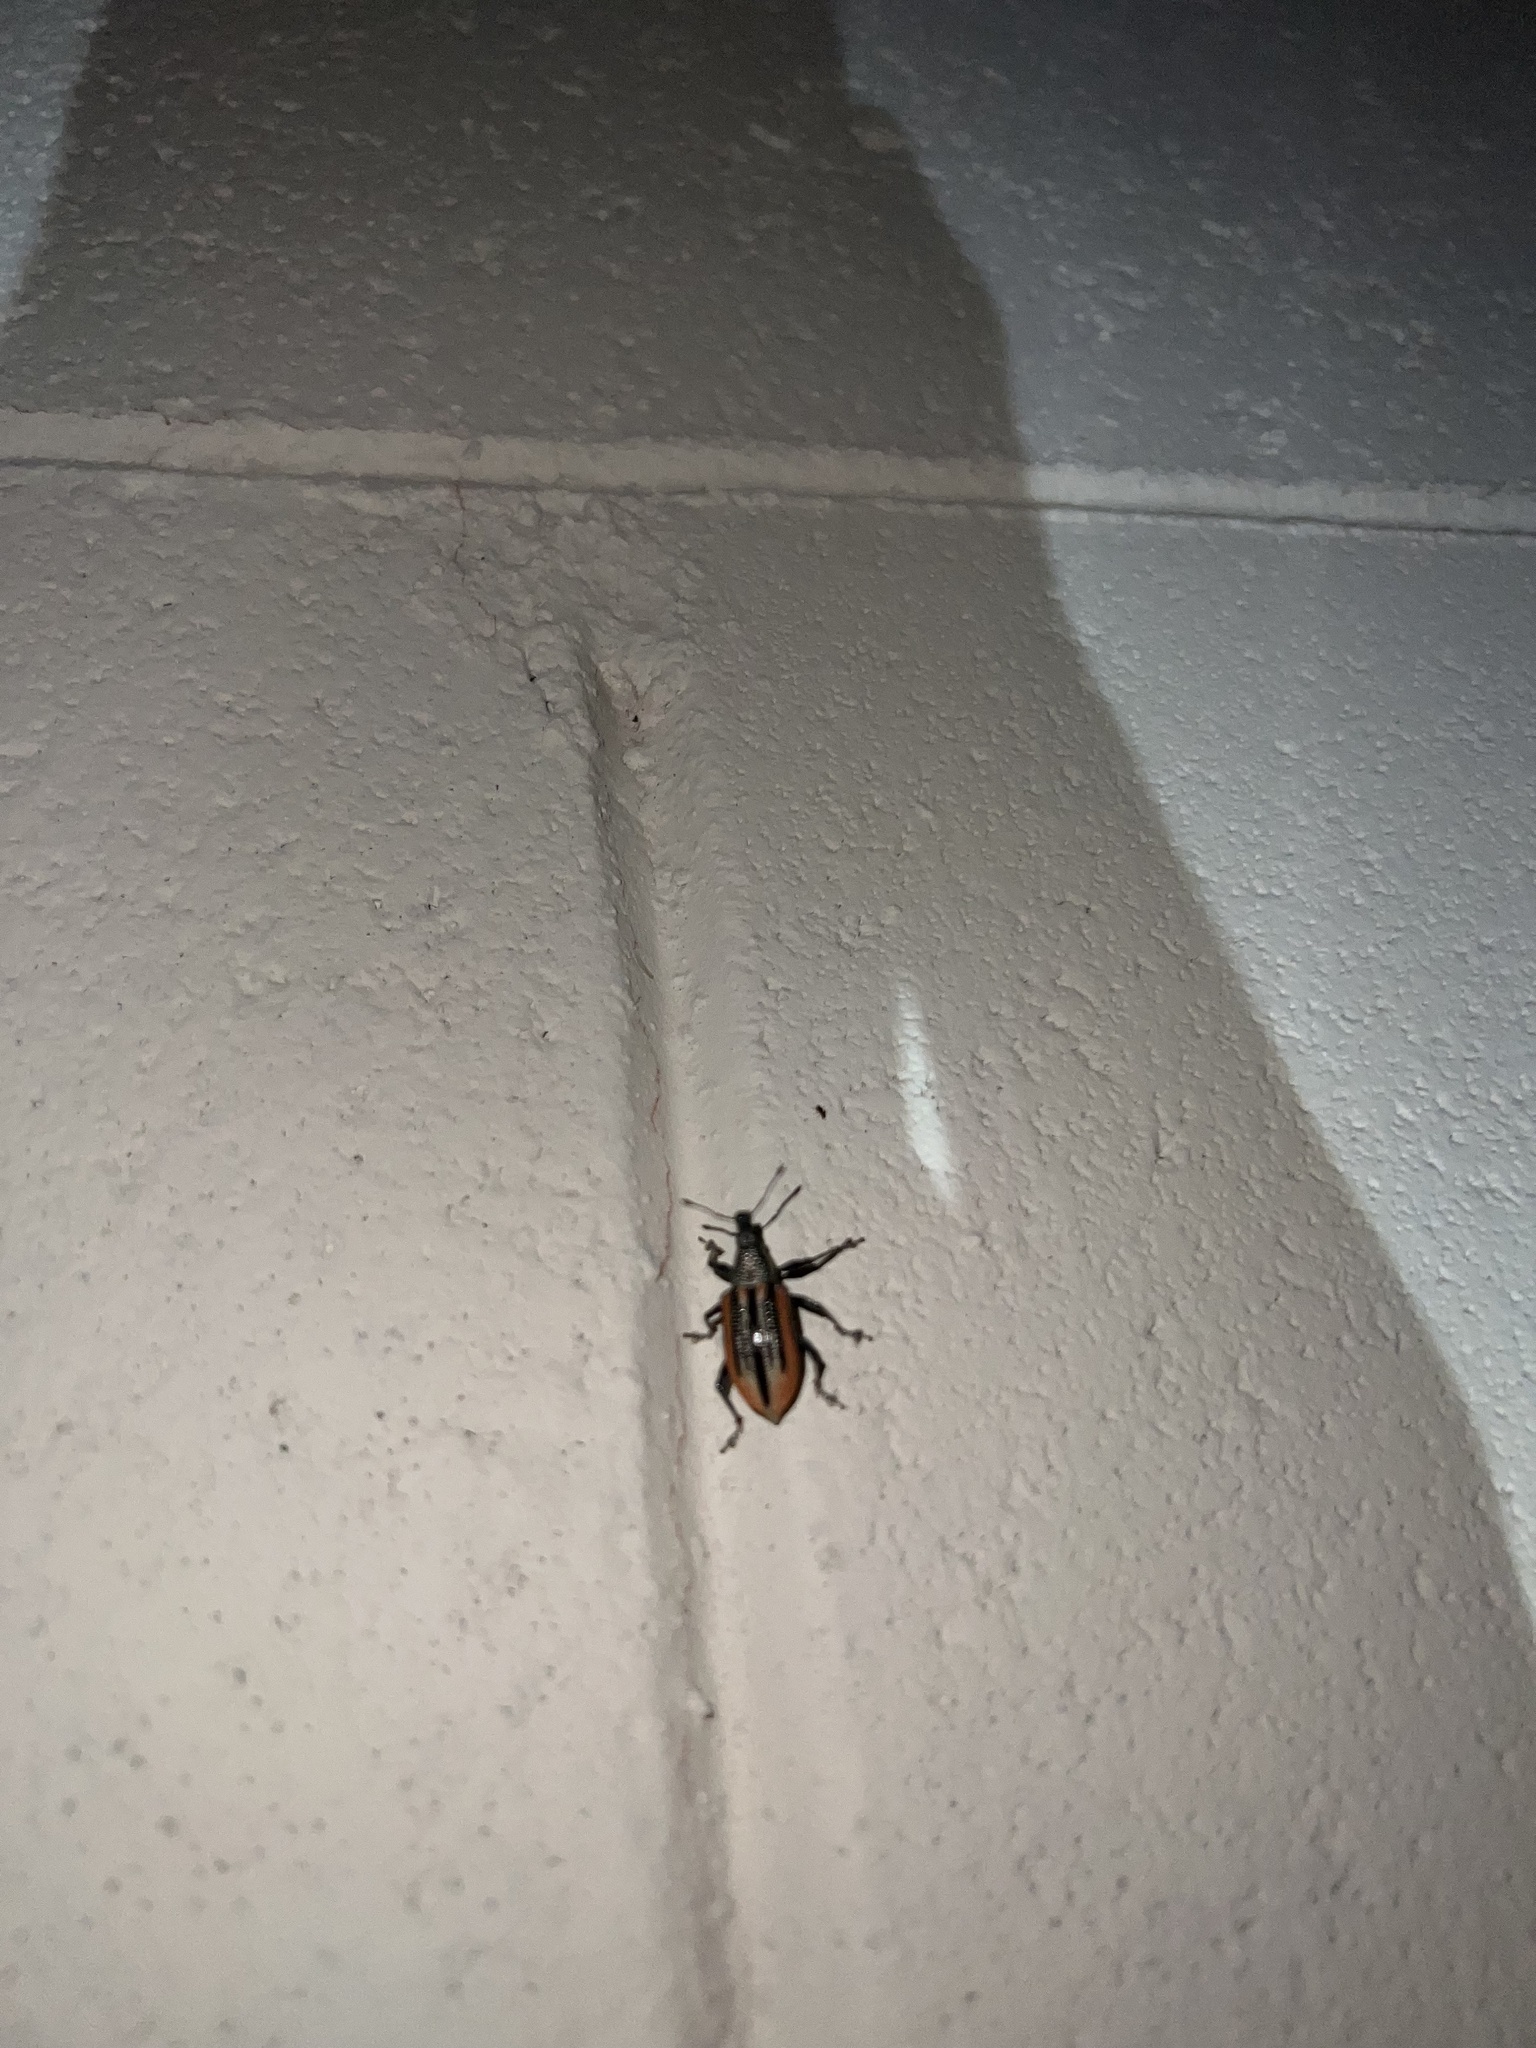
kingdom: Animalia
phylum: Arthropoda
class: Insecta
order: Coleoptera
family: Curculionidae
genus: Diaprepes
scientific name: Diaprepes abbreviatus
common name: Root weevil
